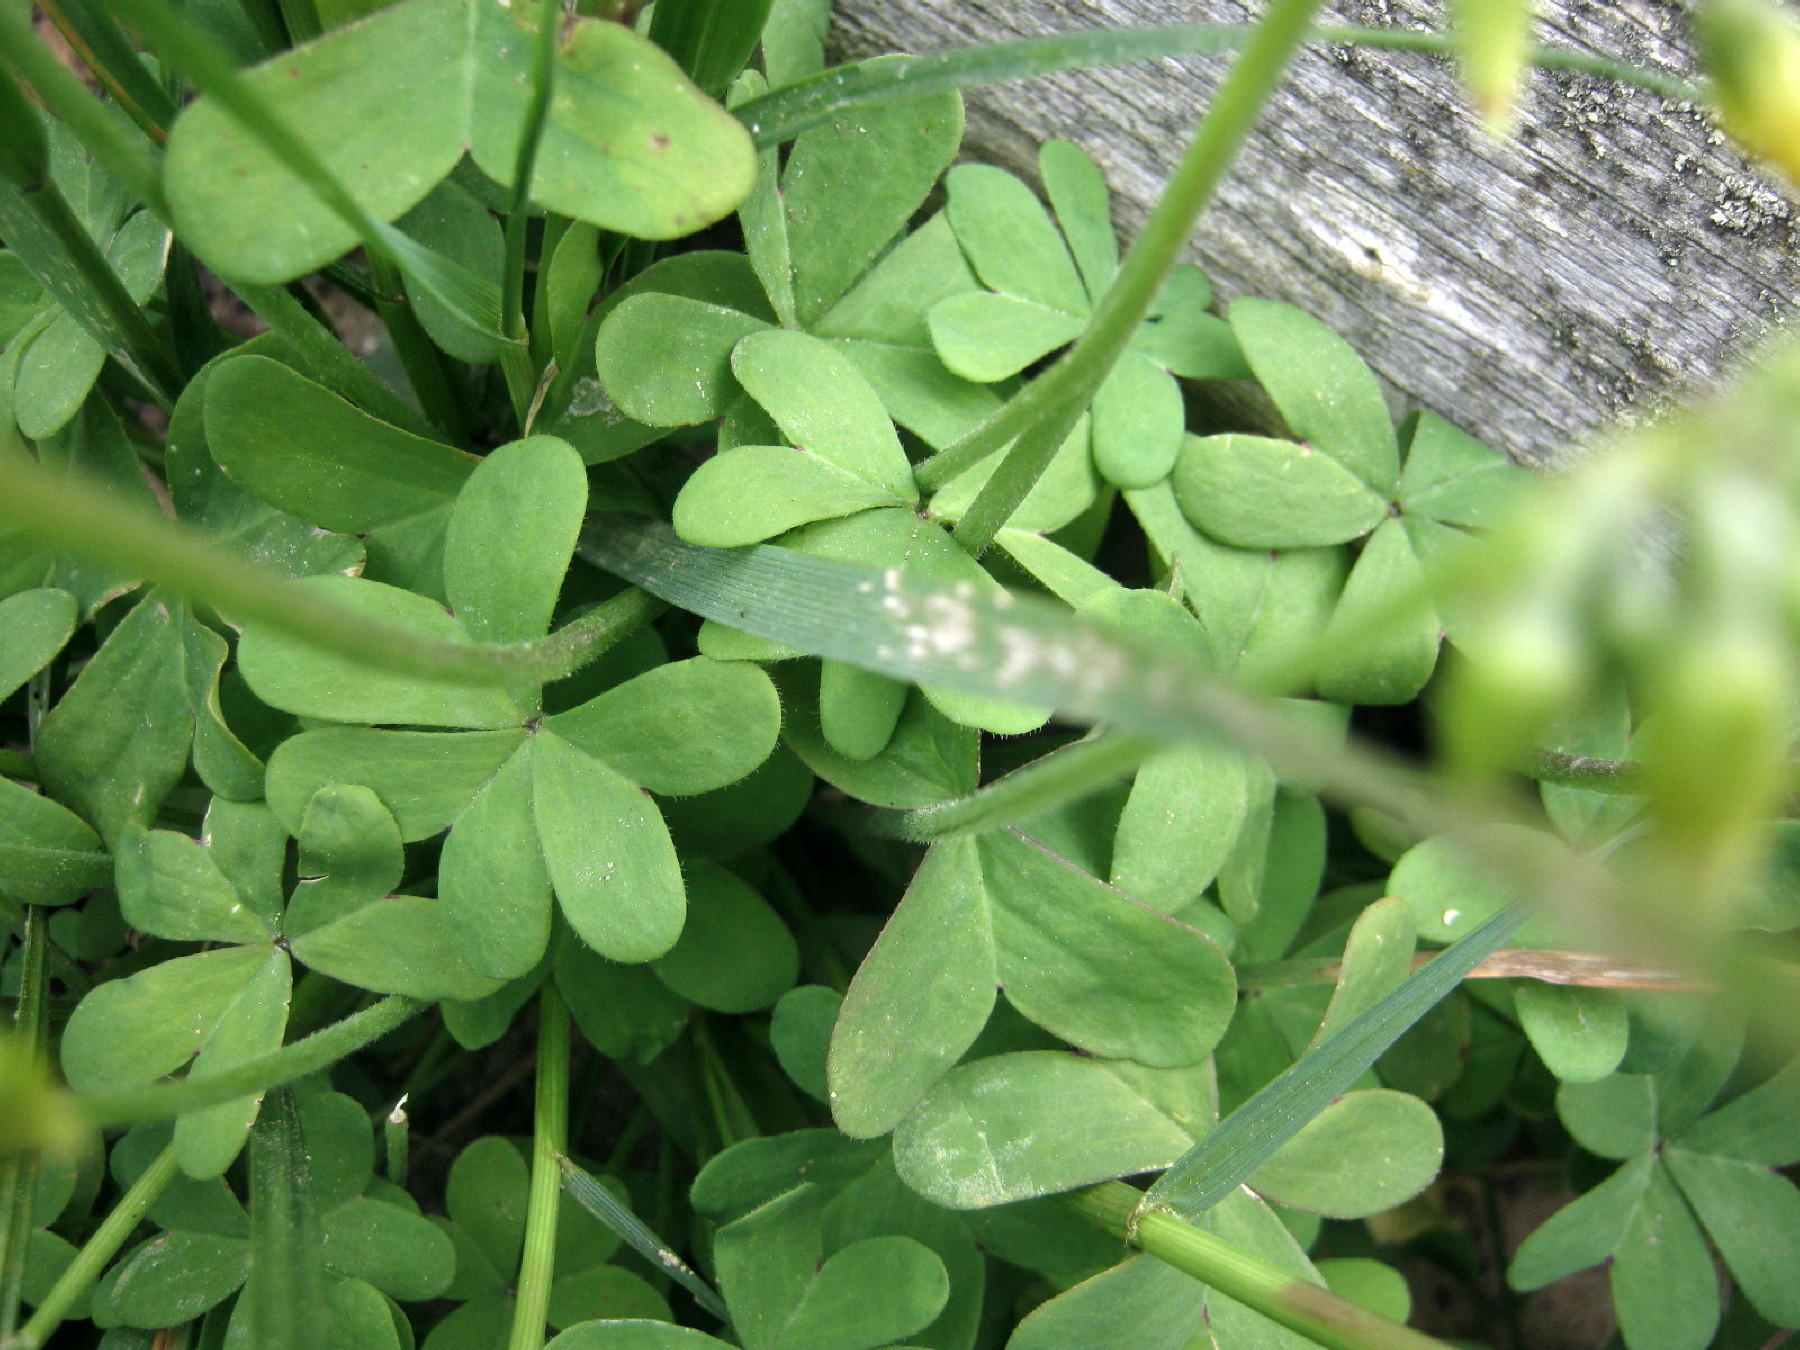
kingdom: Plantae
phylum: Tracheophyta
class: Magnoliopsida
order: Oxalidales
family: Oxalidaceae
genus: Oxalis
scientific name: Oxalis pes-caprae
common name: Bermuda-buttercup
